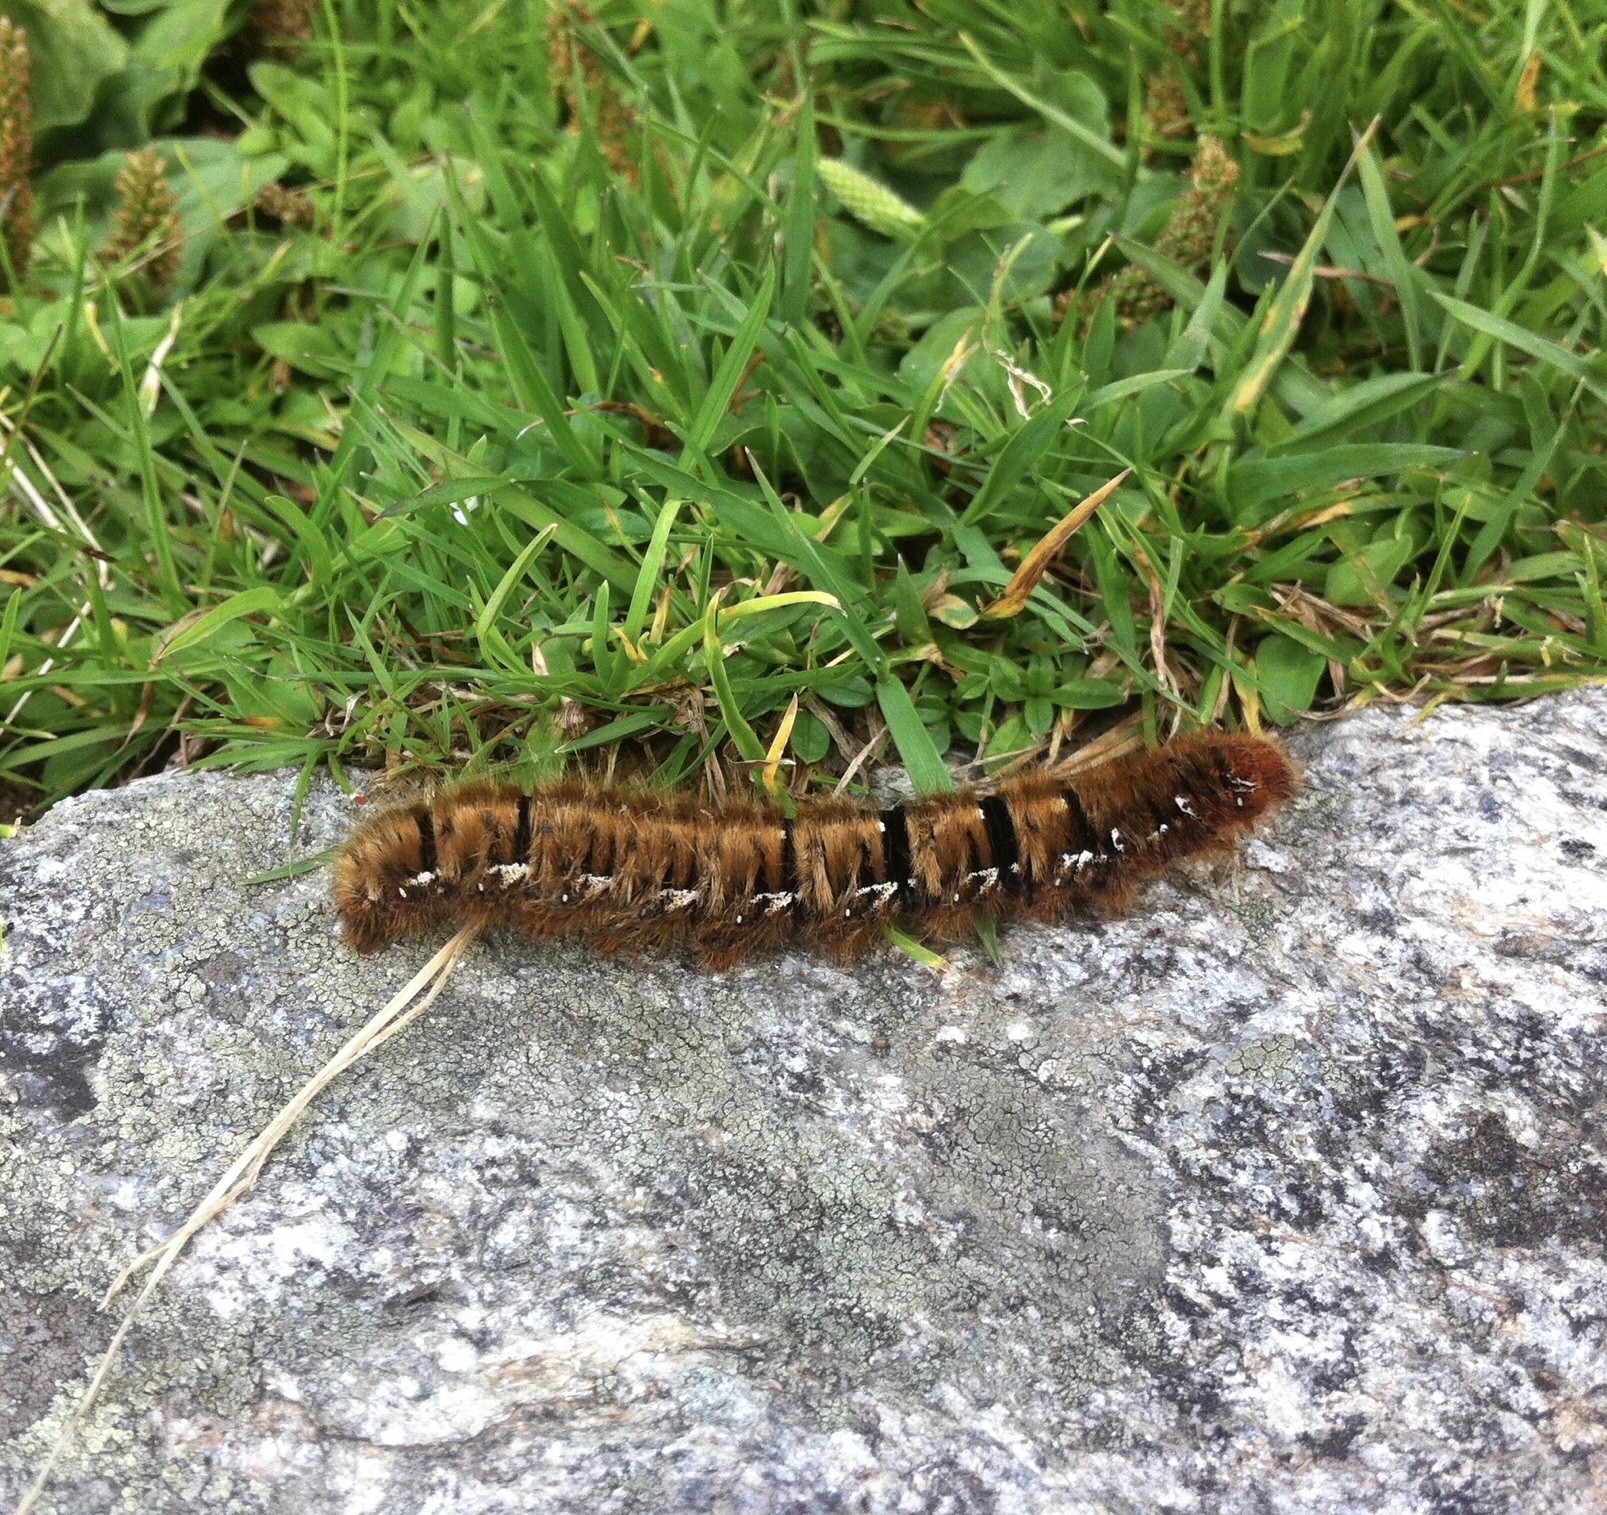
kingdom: Animalia
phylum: Arthropoda
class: Insecta
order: Lepidoptera
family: Lasiocampidae
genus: Lasiocampa
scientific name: Lasiocampa quercus
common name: Oak eggar
